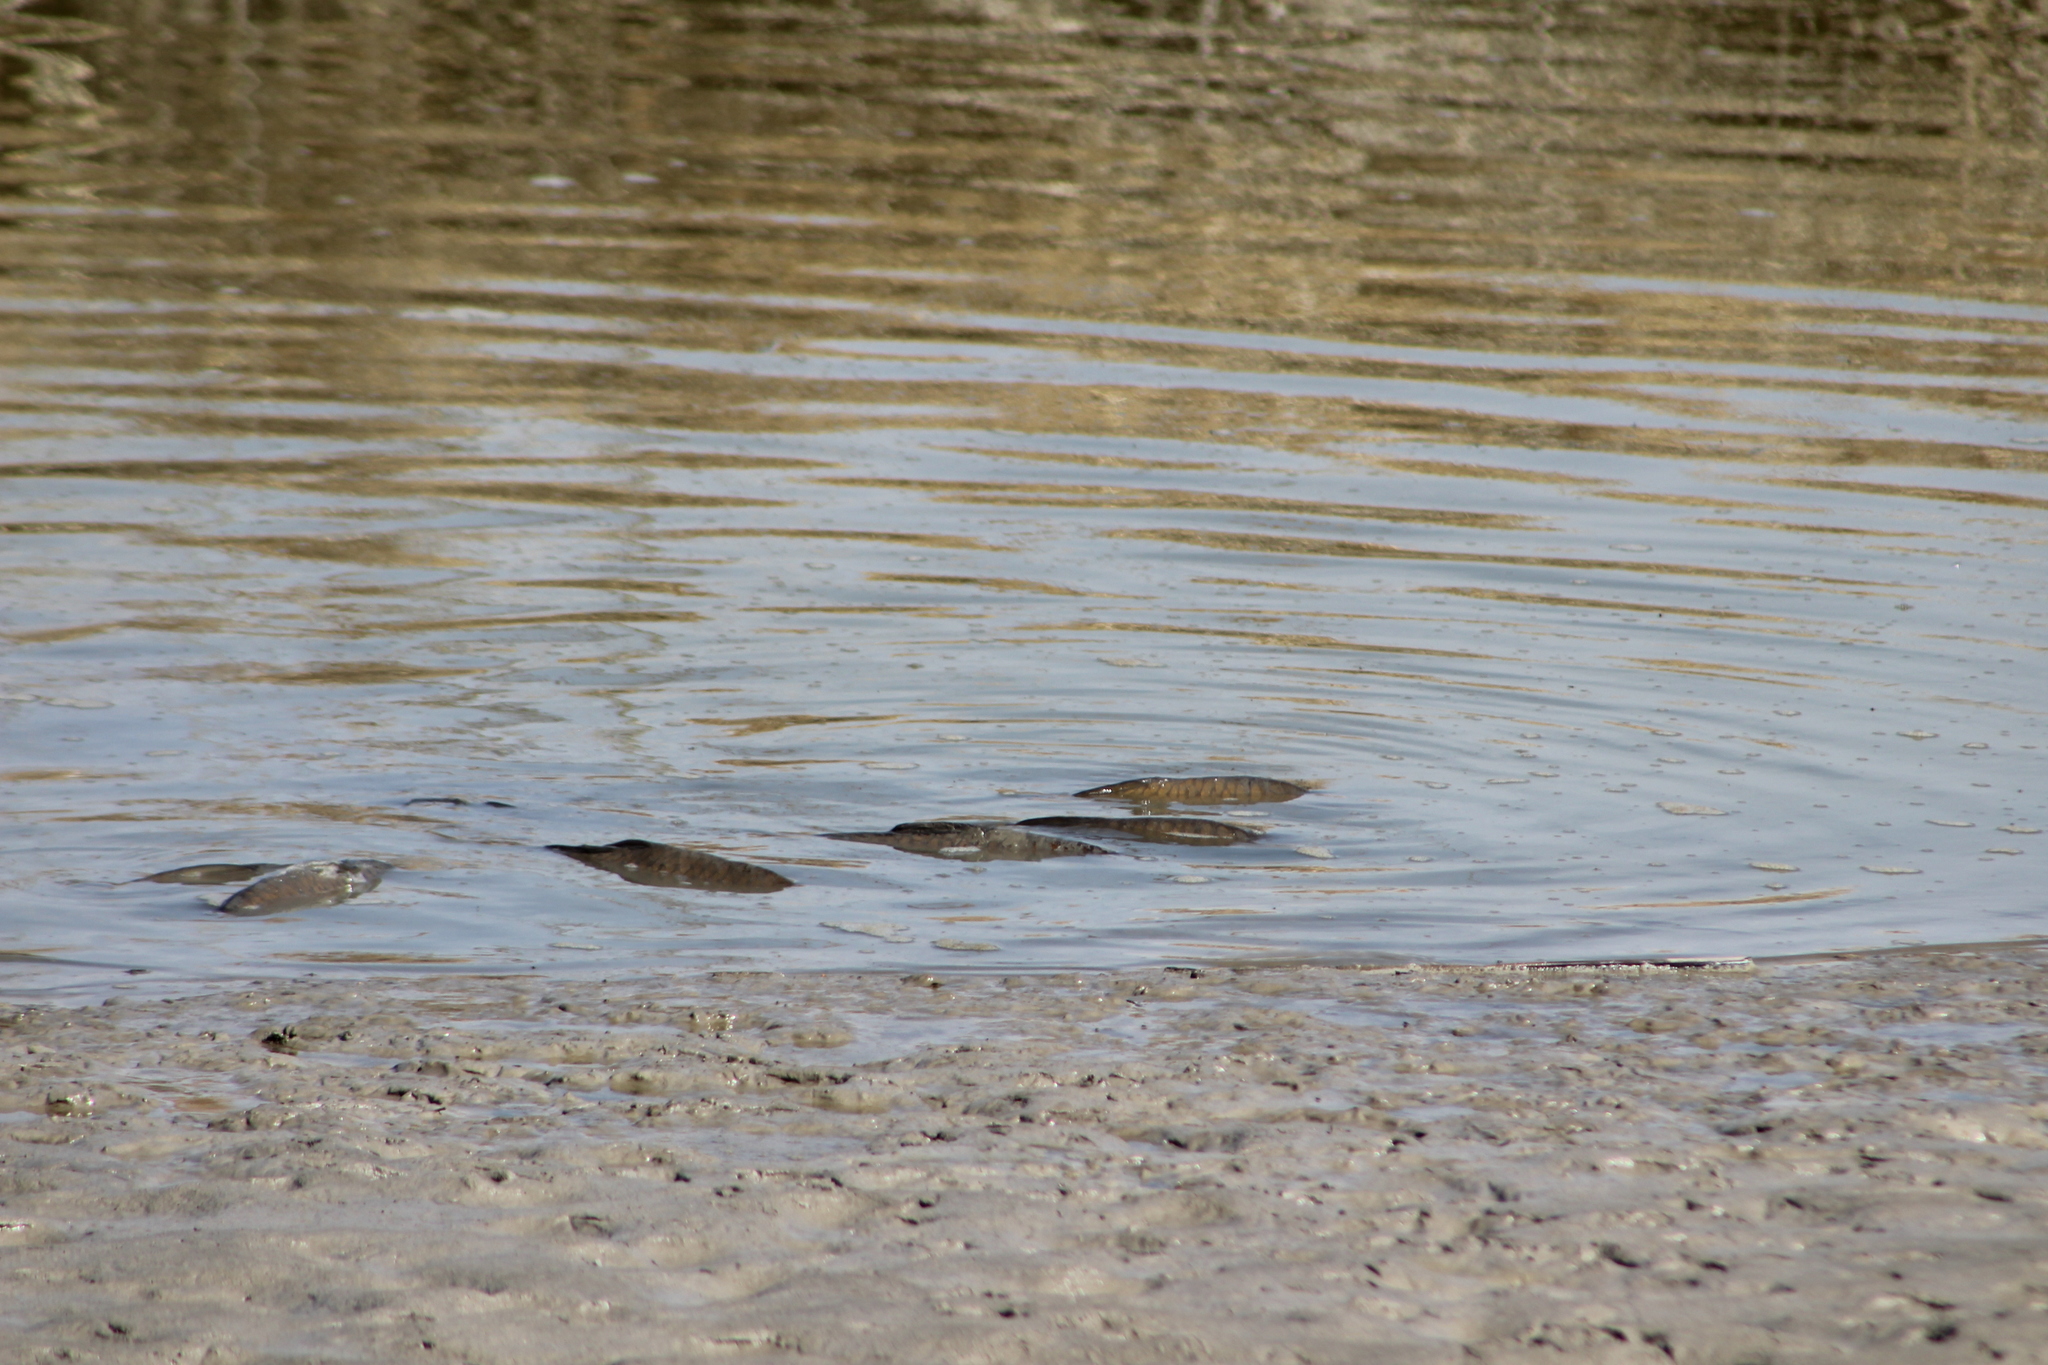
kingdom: Animalia
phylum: Chordata
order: Cypriniformes
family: Cyprinidae
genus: Cyprinus
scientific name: Cyprinus carpio
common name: Common carp
